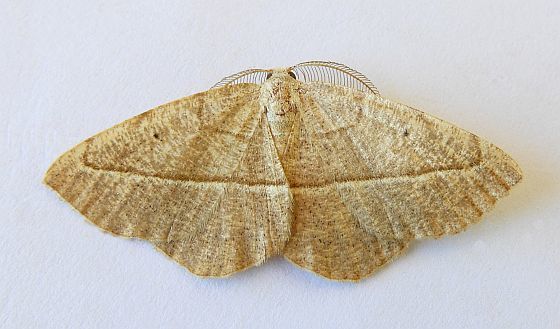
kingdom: Animalia
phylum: Arthropoda
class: Insecta
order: Lepidoptera
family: Geometridae
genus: Eusarca
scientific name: Eusarca tibiaria
